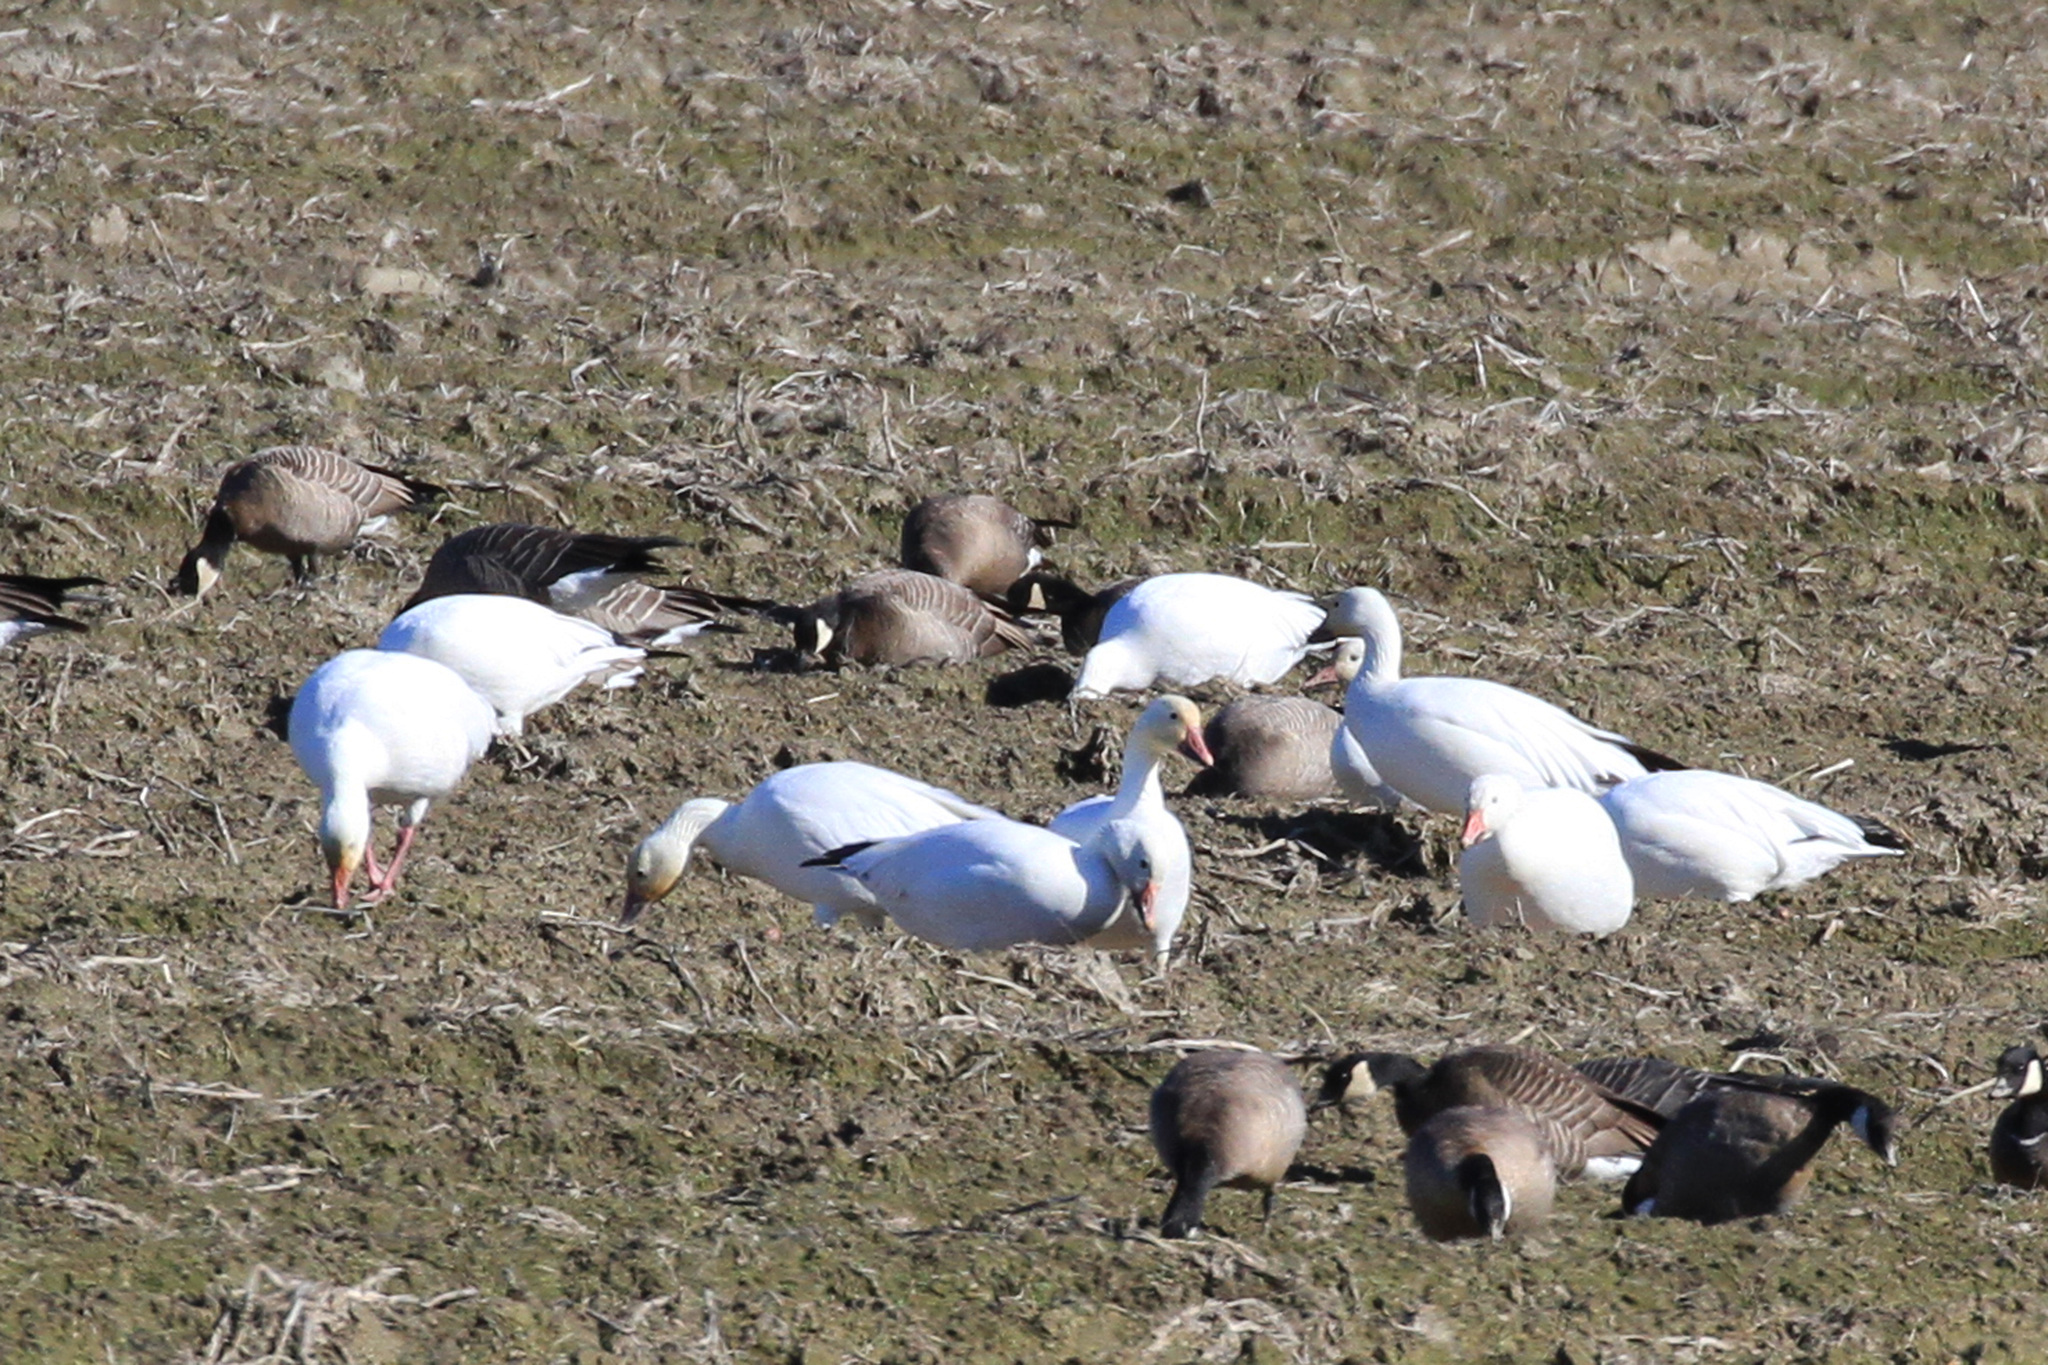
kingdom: Animalia
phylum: Chordata
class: Aves
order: Anseriformes
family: Anatidae
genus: Anser
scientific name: Anser caerulescens
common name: Snow goose
